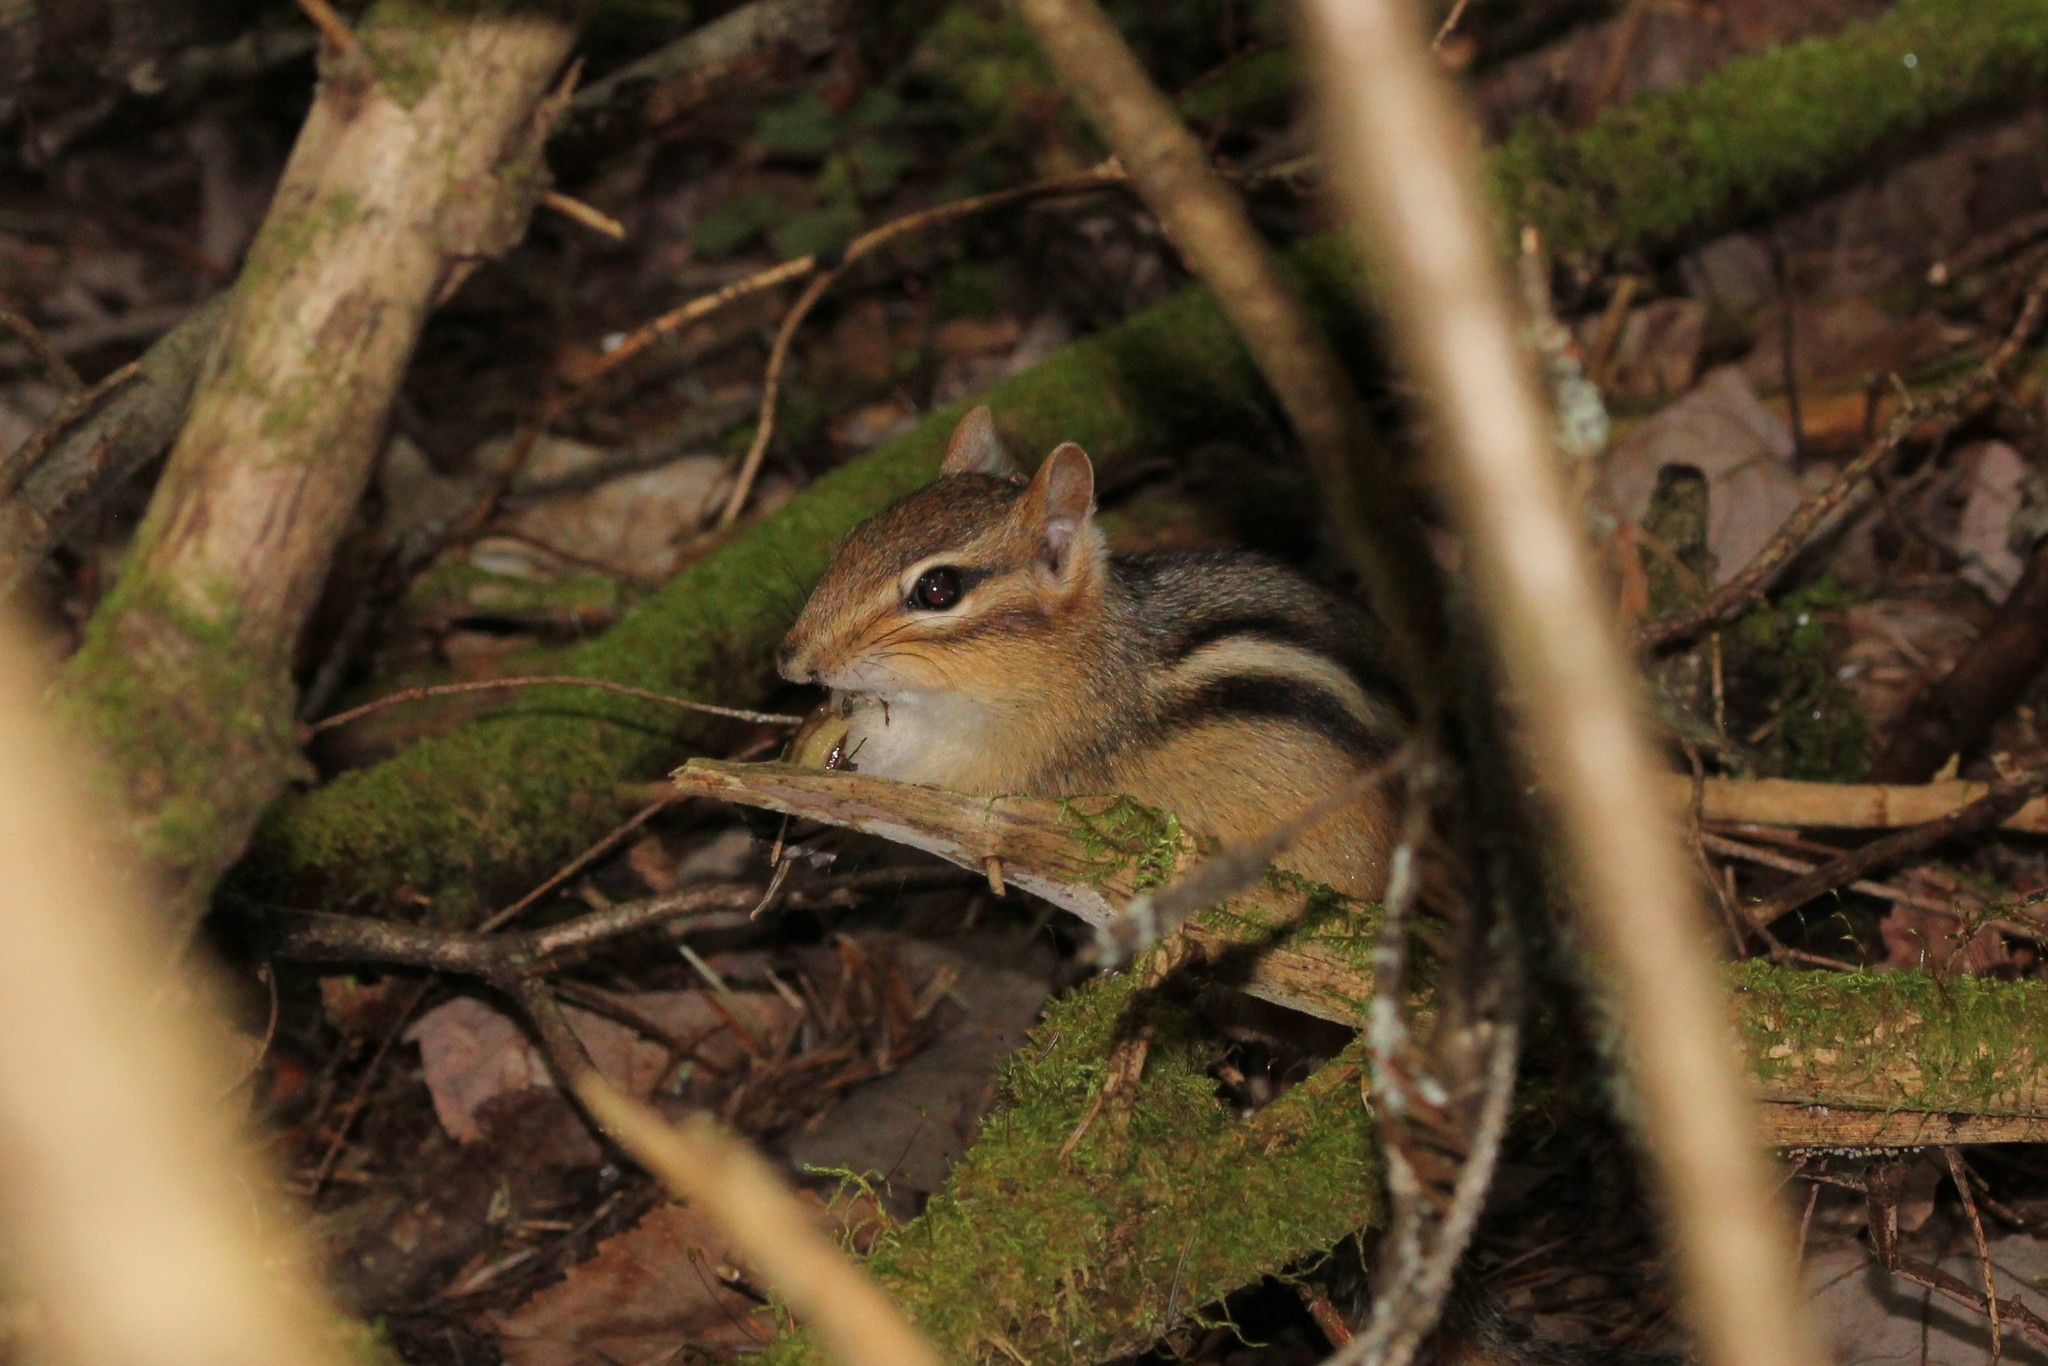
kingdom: Animalia
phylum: Chordata
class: Mammalia
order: Rodentia
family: Sciuridae
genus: Tamias
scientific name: Tamias striatus
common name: Eastern chipmunk
